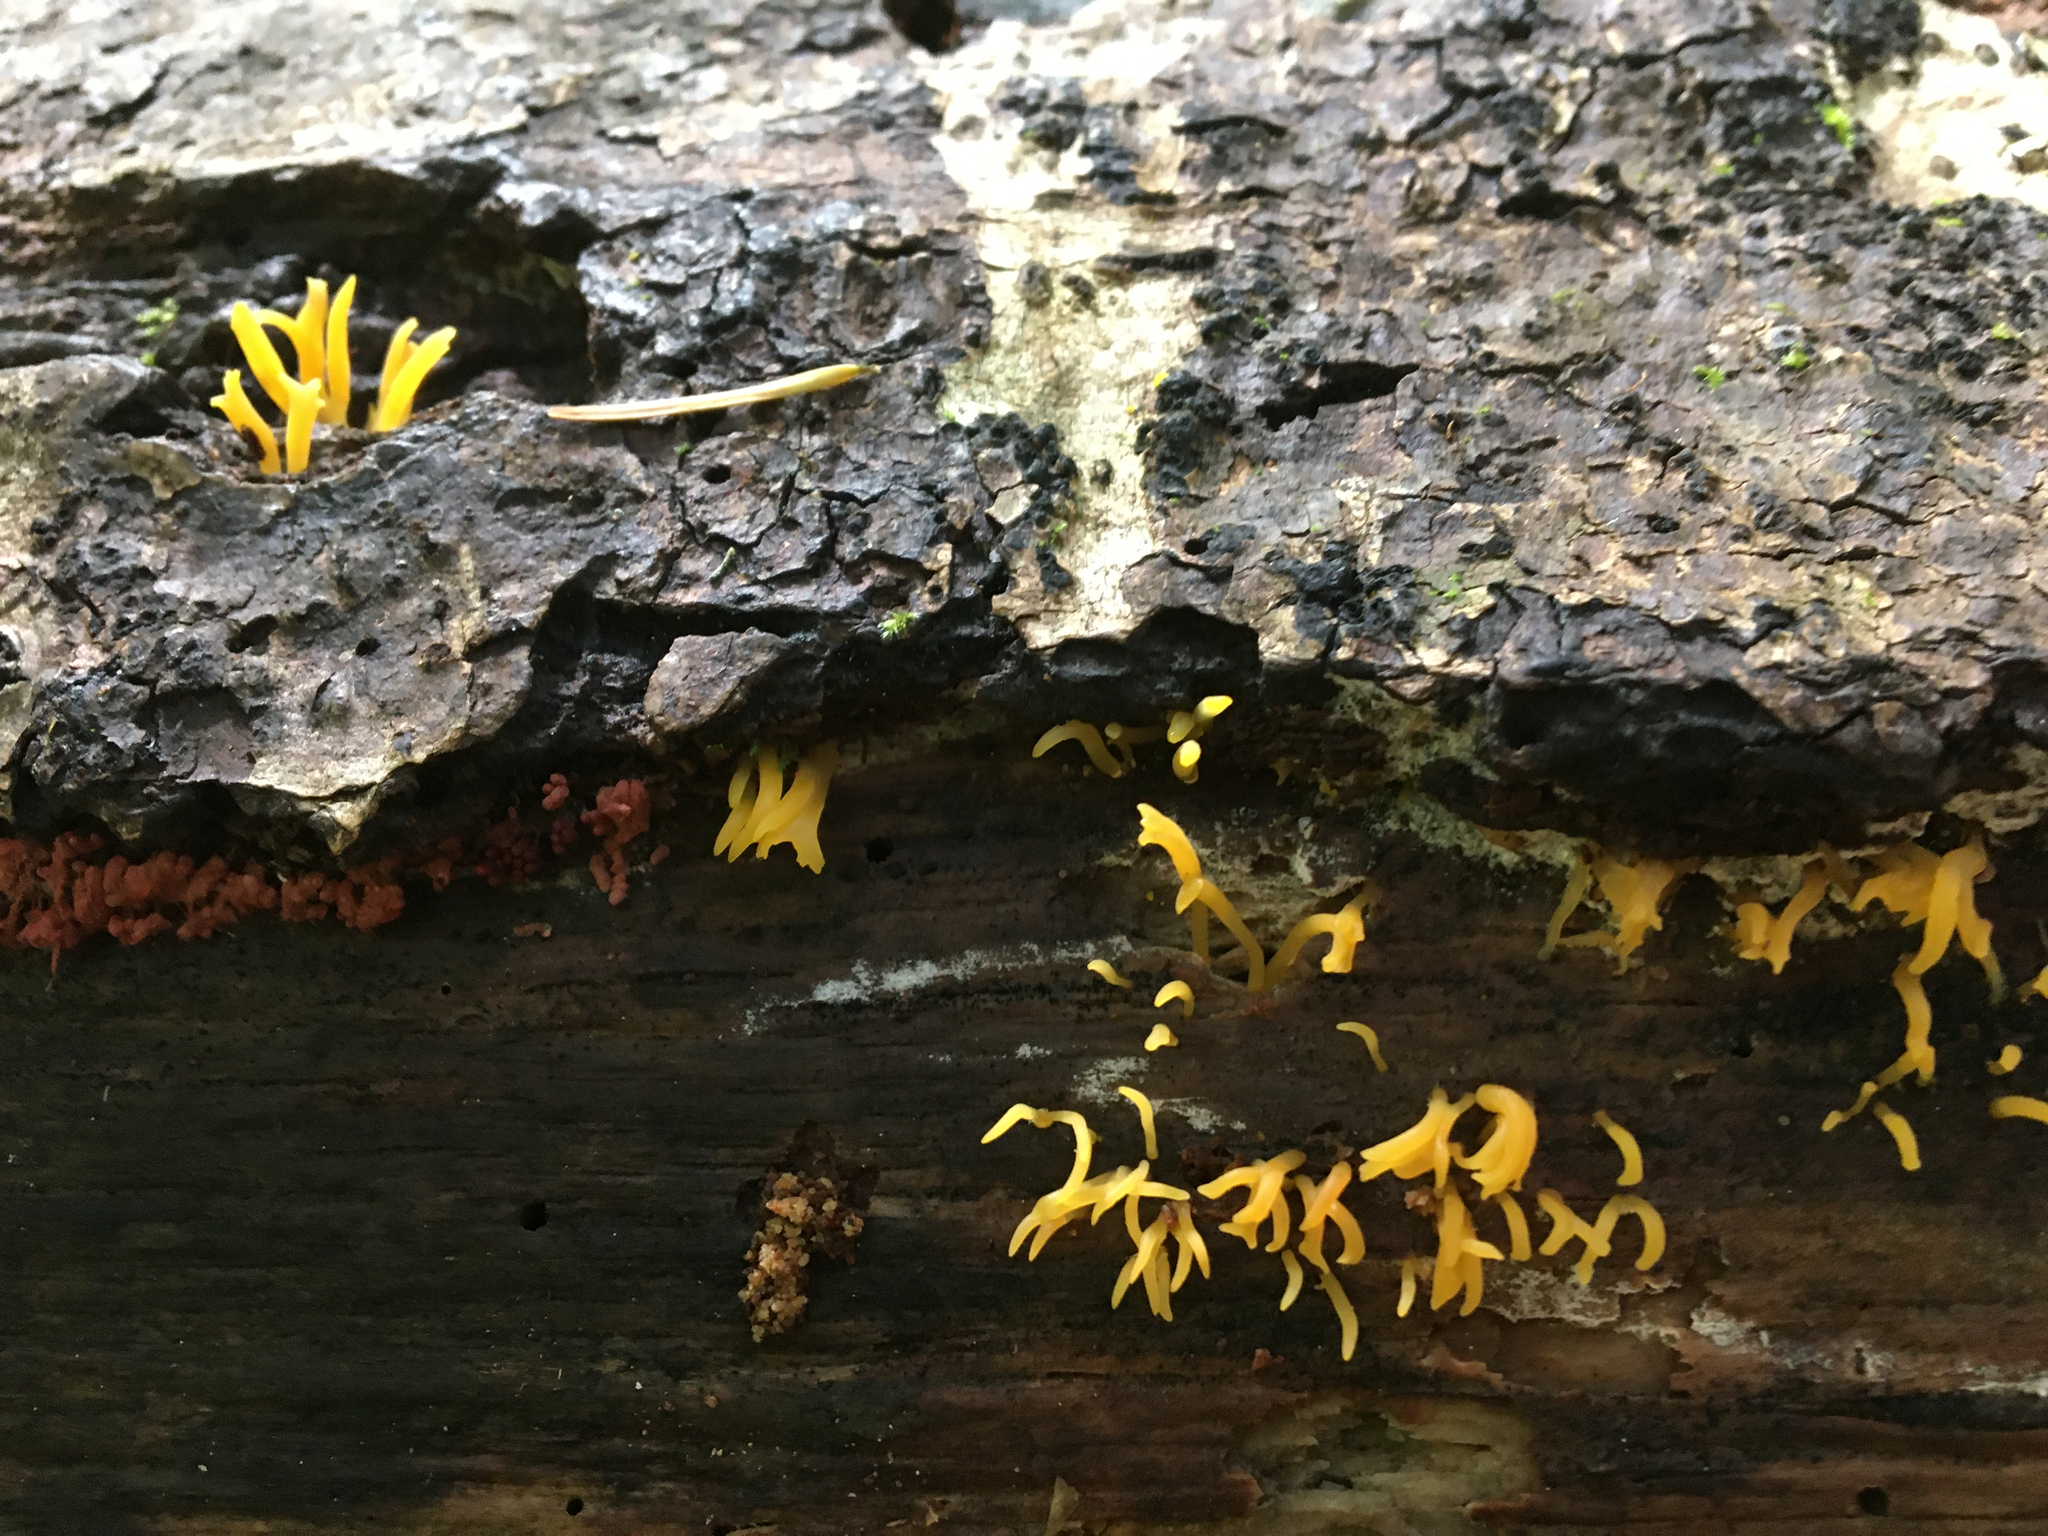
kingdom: Fungi
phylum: Basidiomycota
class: Dacrymycetes
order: Dacrymycetales
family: Dacrymycetaceae
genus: Calocera
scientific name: Calocera viscosa
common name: Yellow stagshorn
